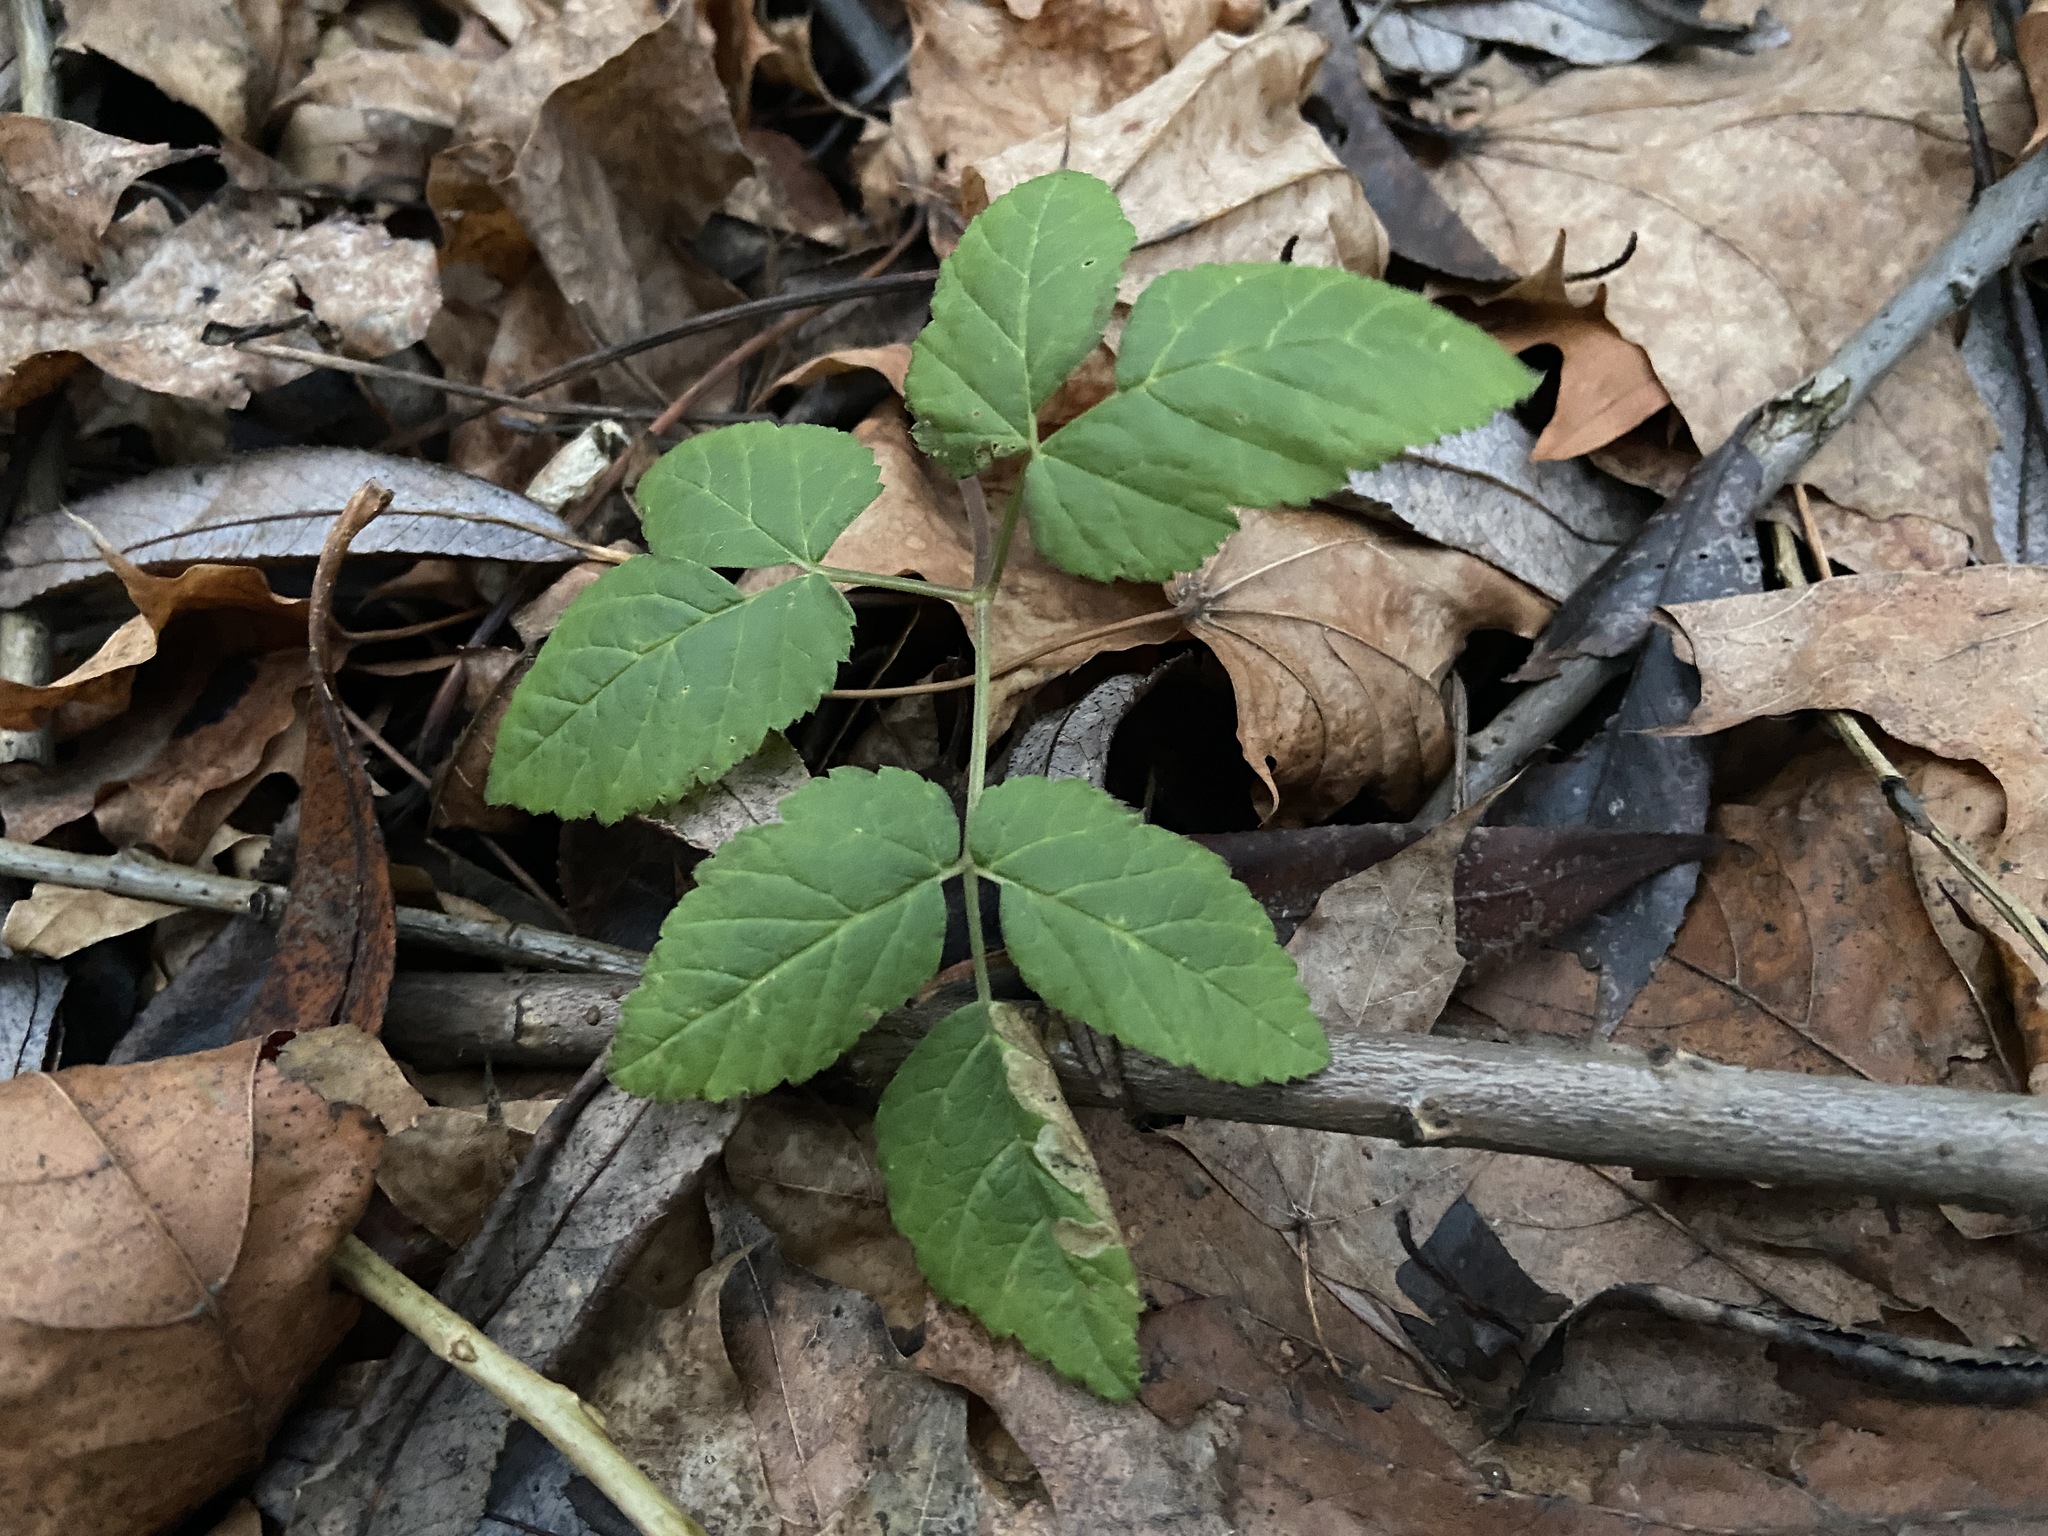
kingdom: Plantae
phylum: Tracheophyta
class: Magnoliopsida
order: Apiales
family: Apiaceae
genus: Aegopodium
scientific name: Aegopodium podagraria
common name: Ground-elder
